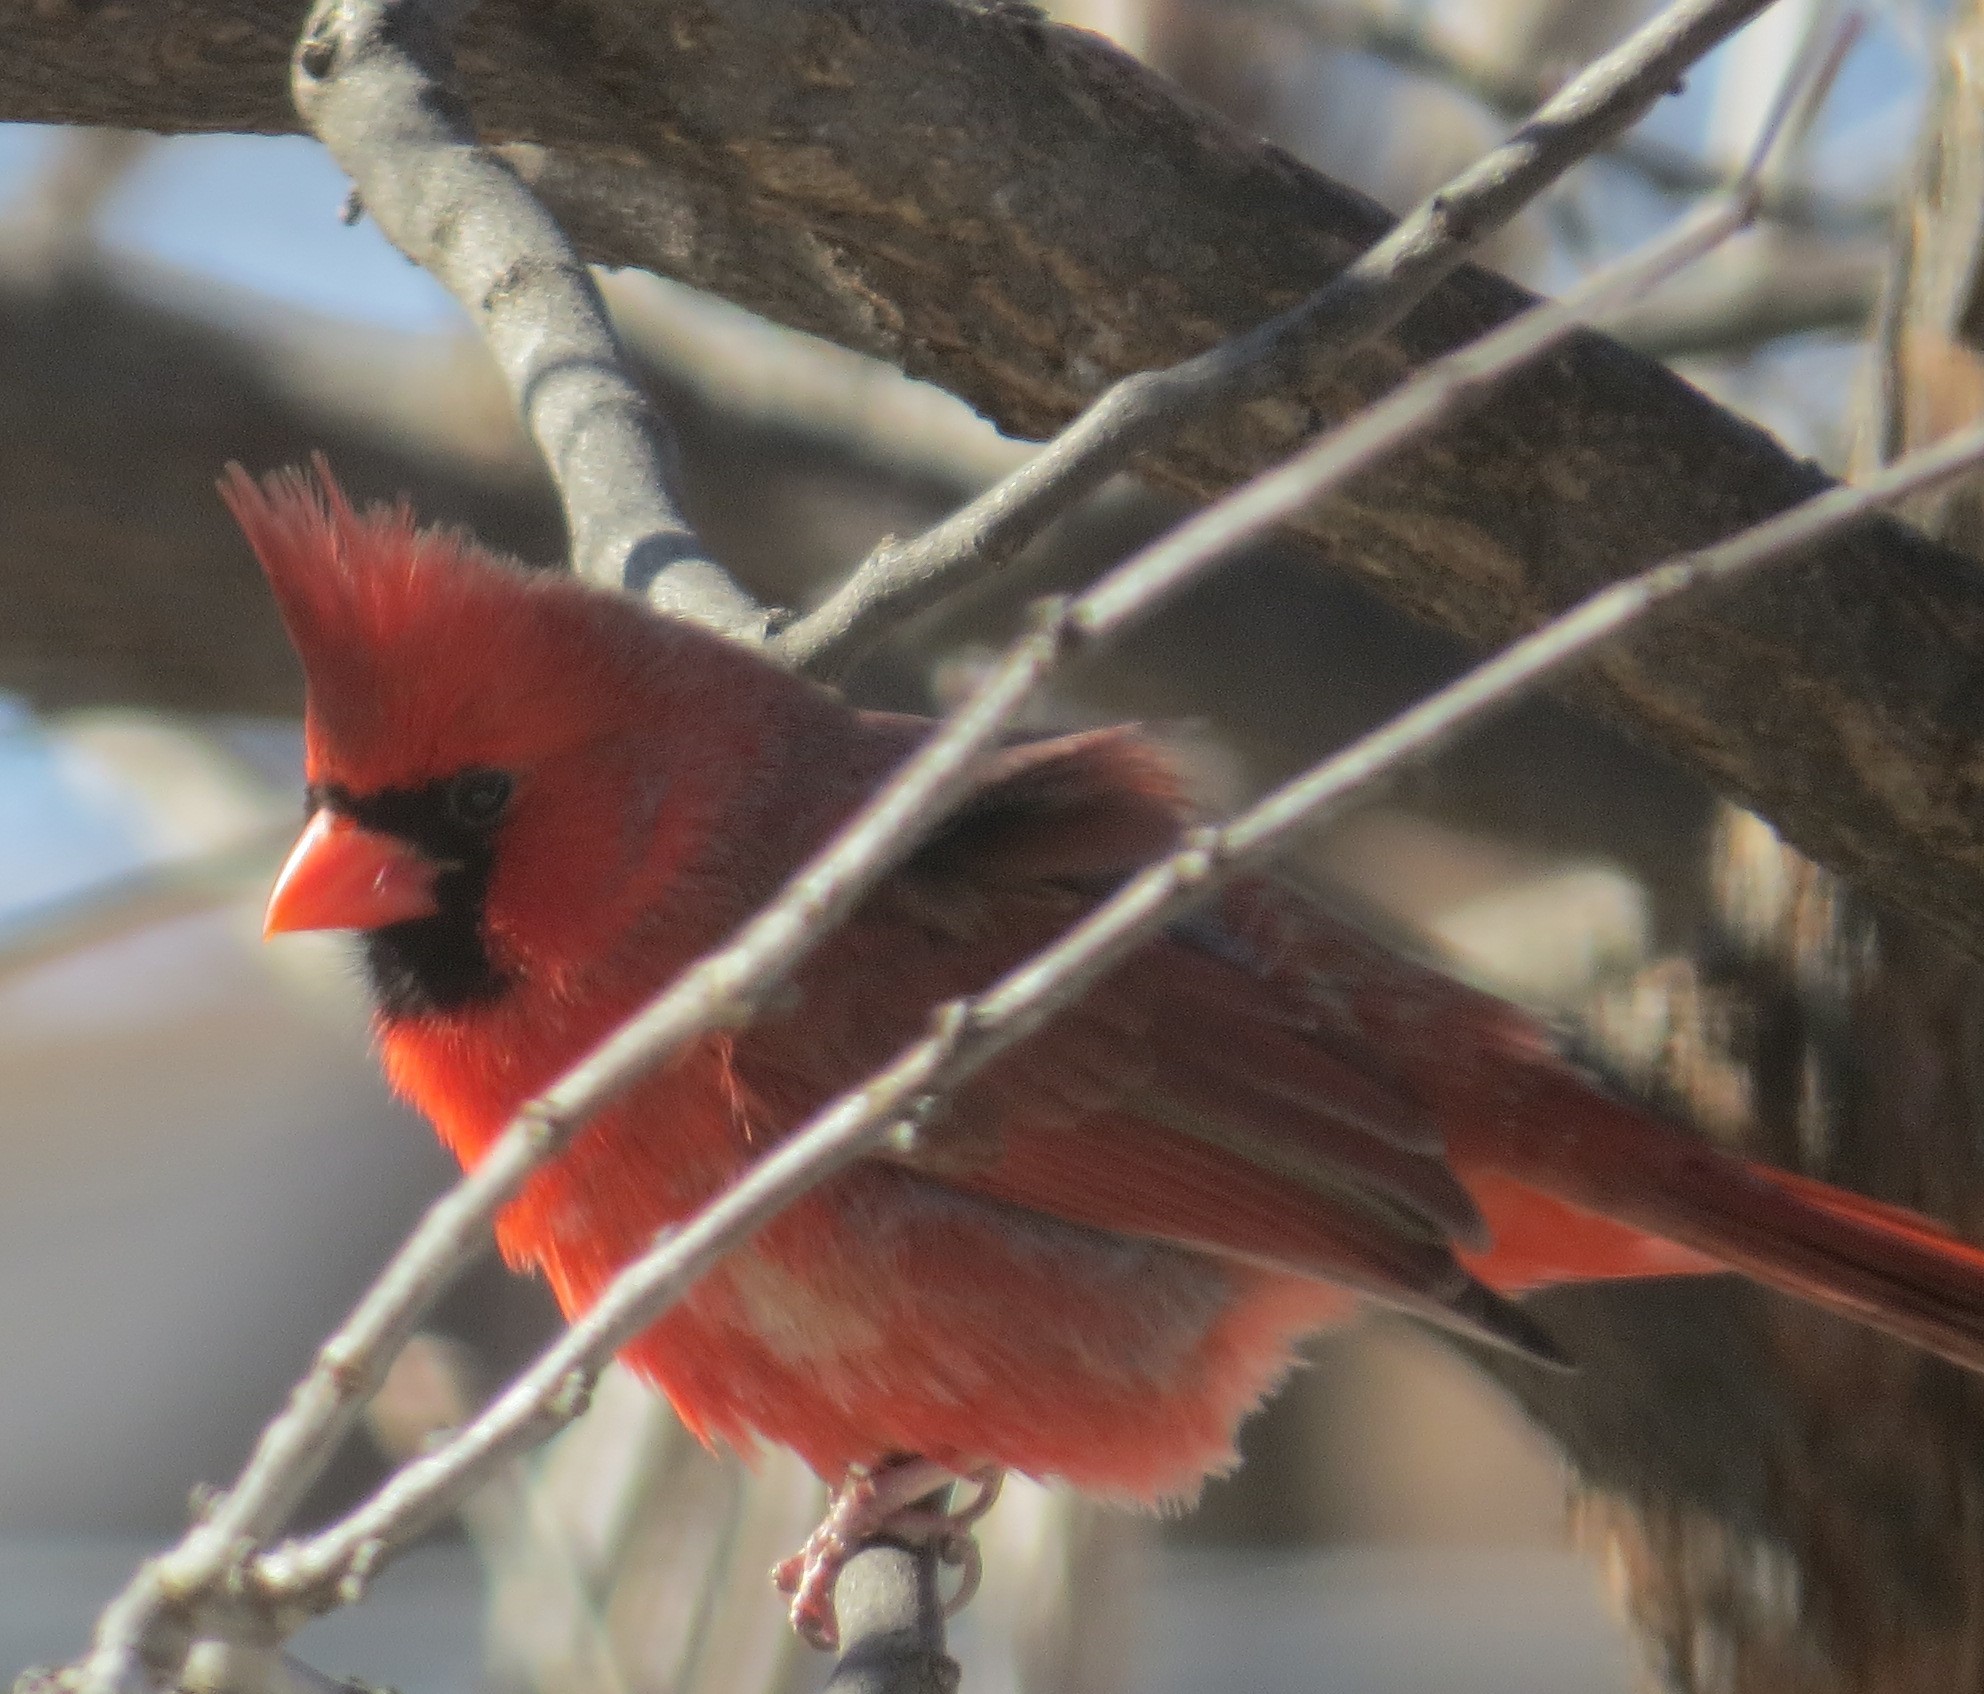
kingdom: Animalia
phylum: Chordata
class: Aves
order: Passeriformes
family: Cardinalidae
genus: Cardinalis
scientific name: Cardinalis cardinalis
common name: Northern cardinal
